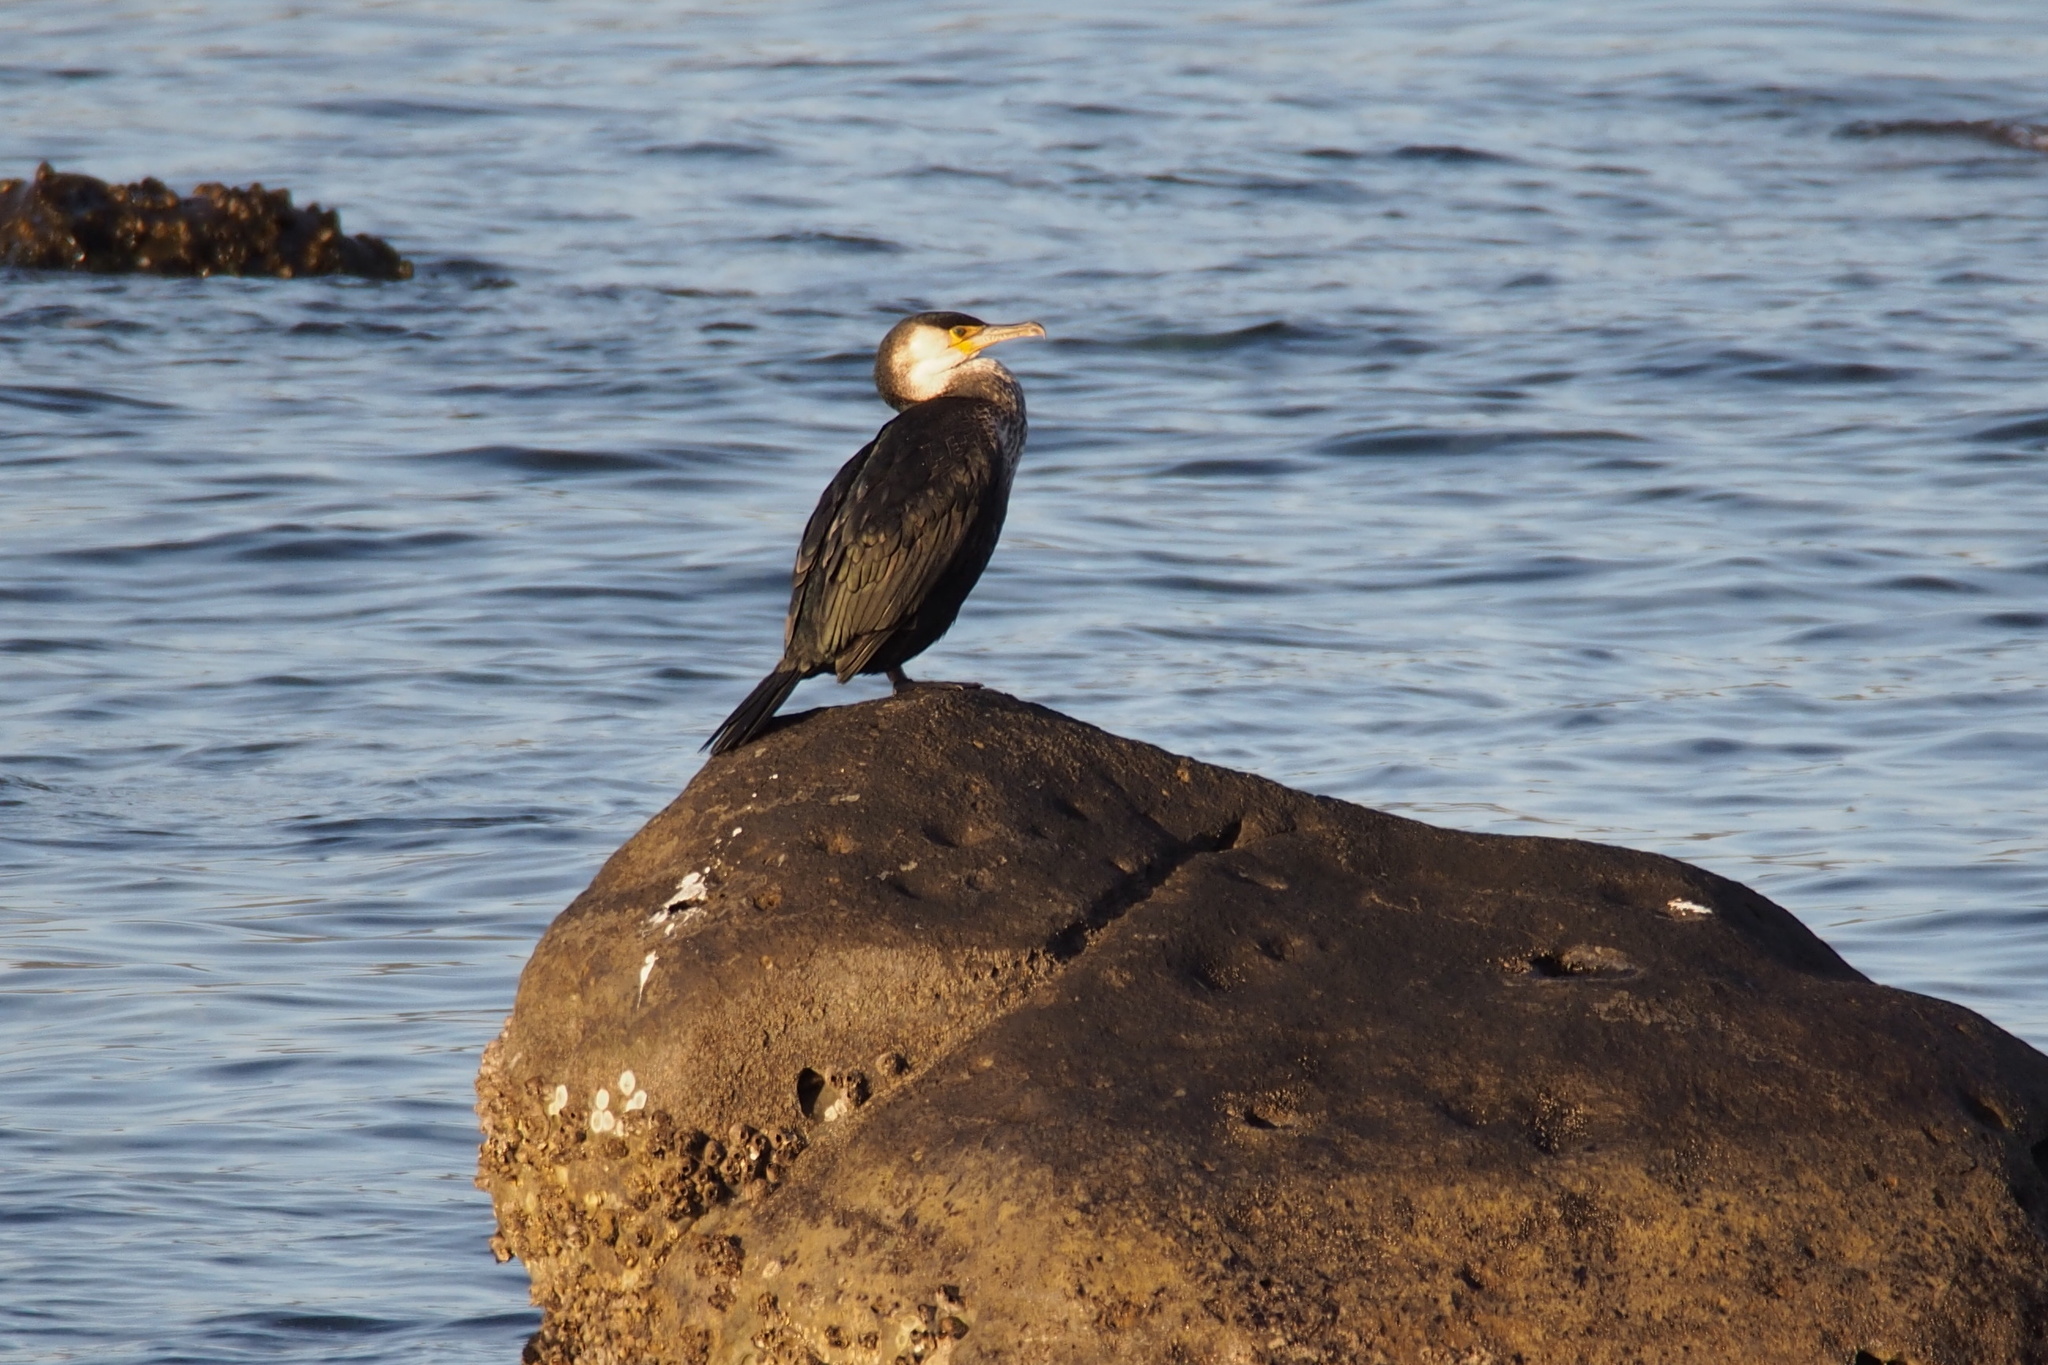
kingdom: Animalia
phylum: Chordata
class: Aves
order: Suliformes
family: Phalacrocoracidae
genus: Phalacrocorax
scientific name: Phalacrocorax capillatus
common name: Japanese cormorant
